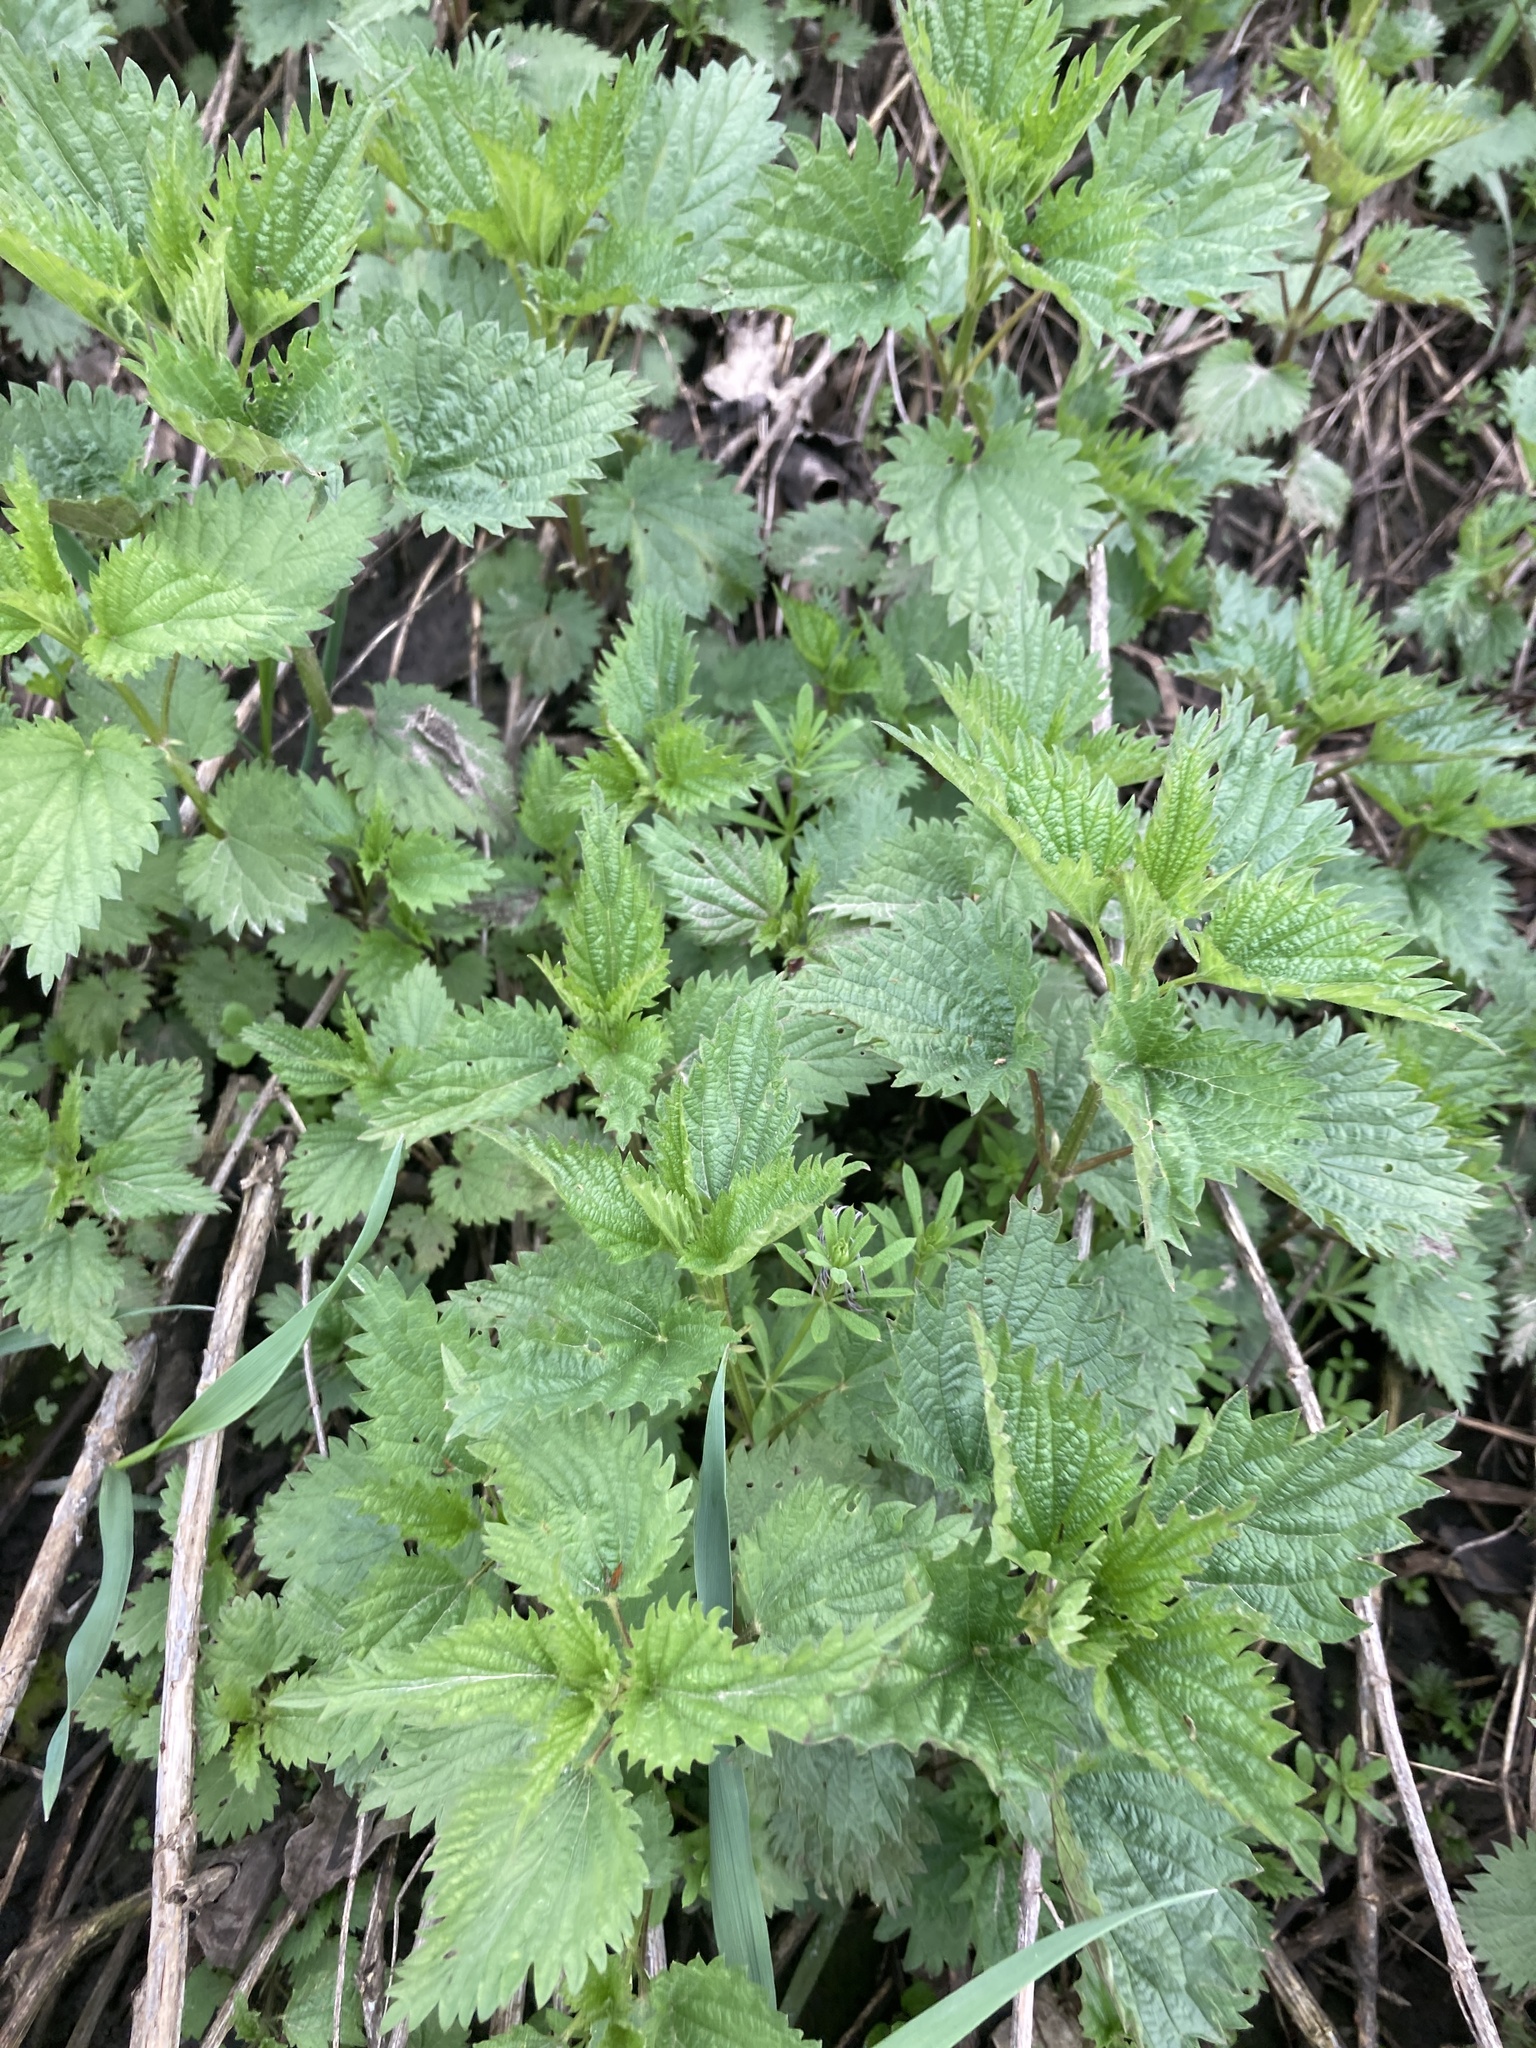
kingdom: Plantae
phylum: Tracheophyta
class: Magnoliopsida
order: Rosales
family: Urticaceae
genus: Urtica
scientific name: Urtica dioica
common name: Common nettle
